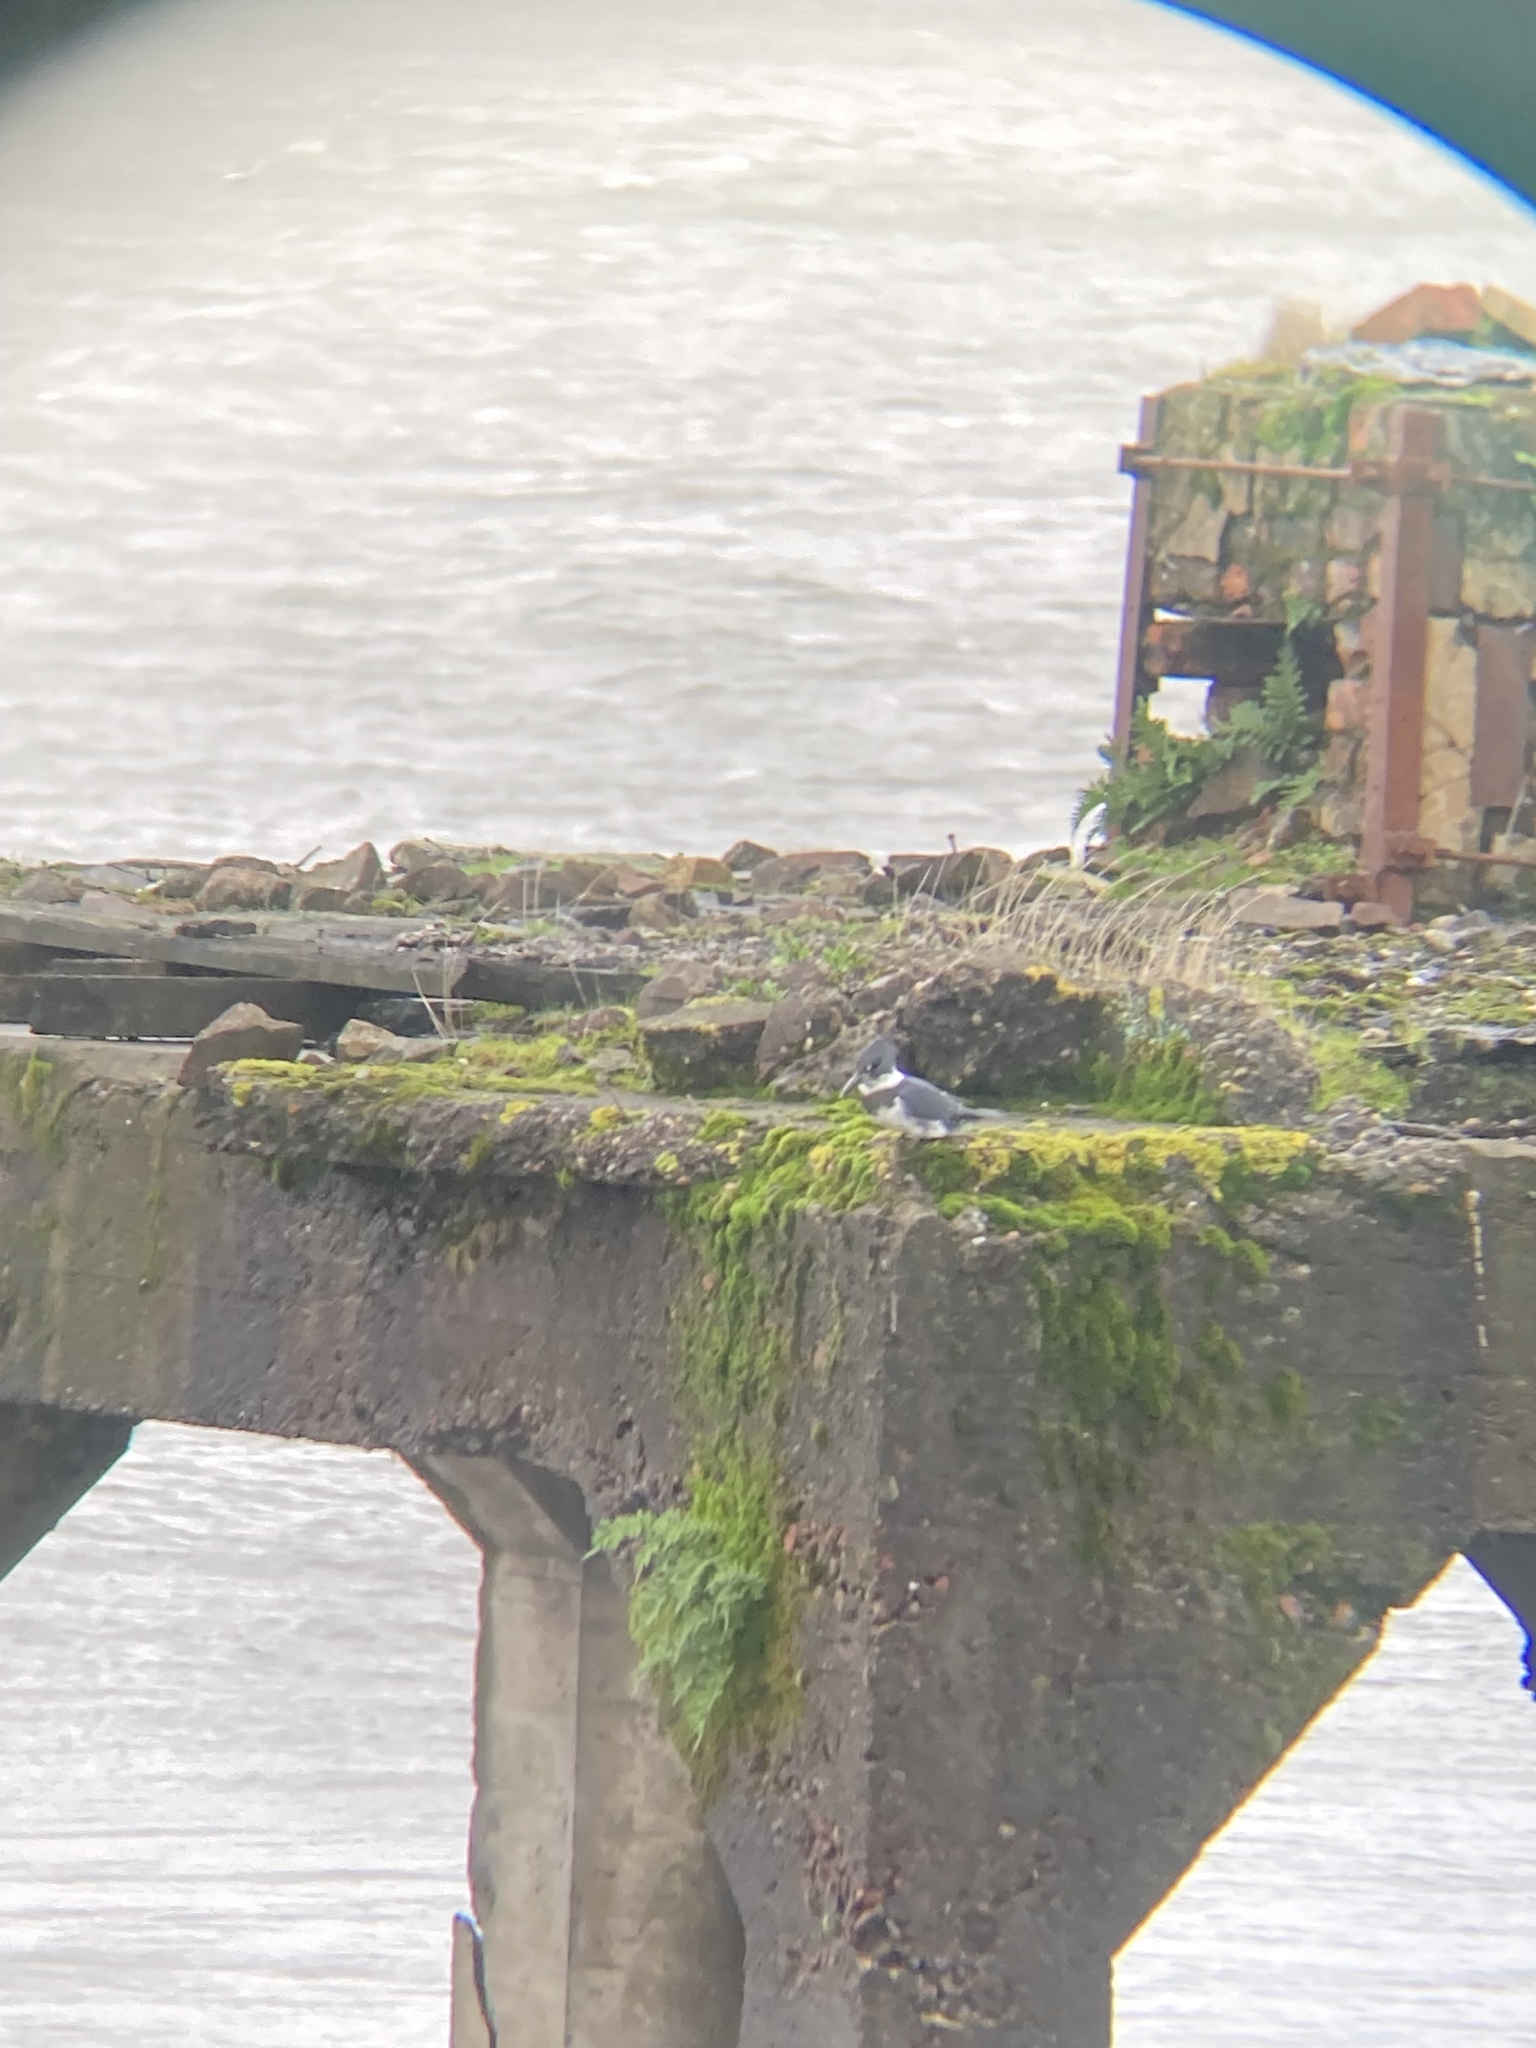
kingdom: Animalia
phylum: Chordata
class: Aves
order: Coraciiformes
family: Alcedinidae
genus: Megaceryle
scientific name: Megaceryle alcyon
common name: Belted kingfisher
